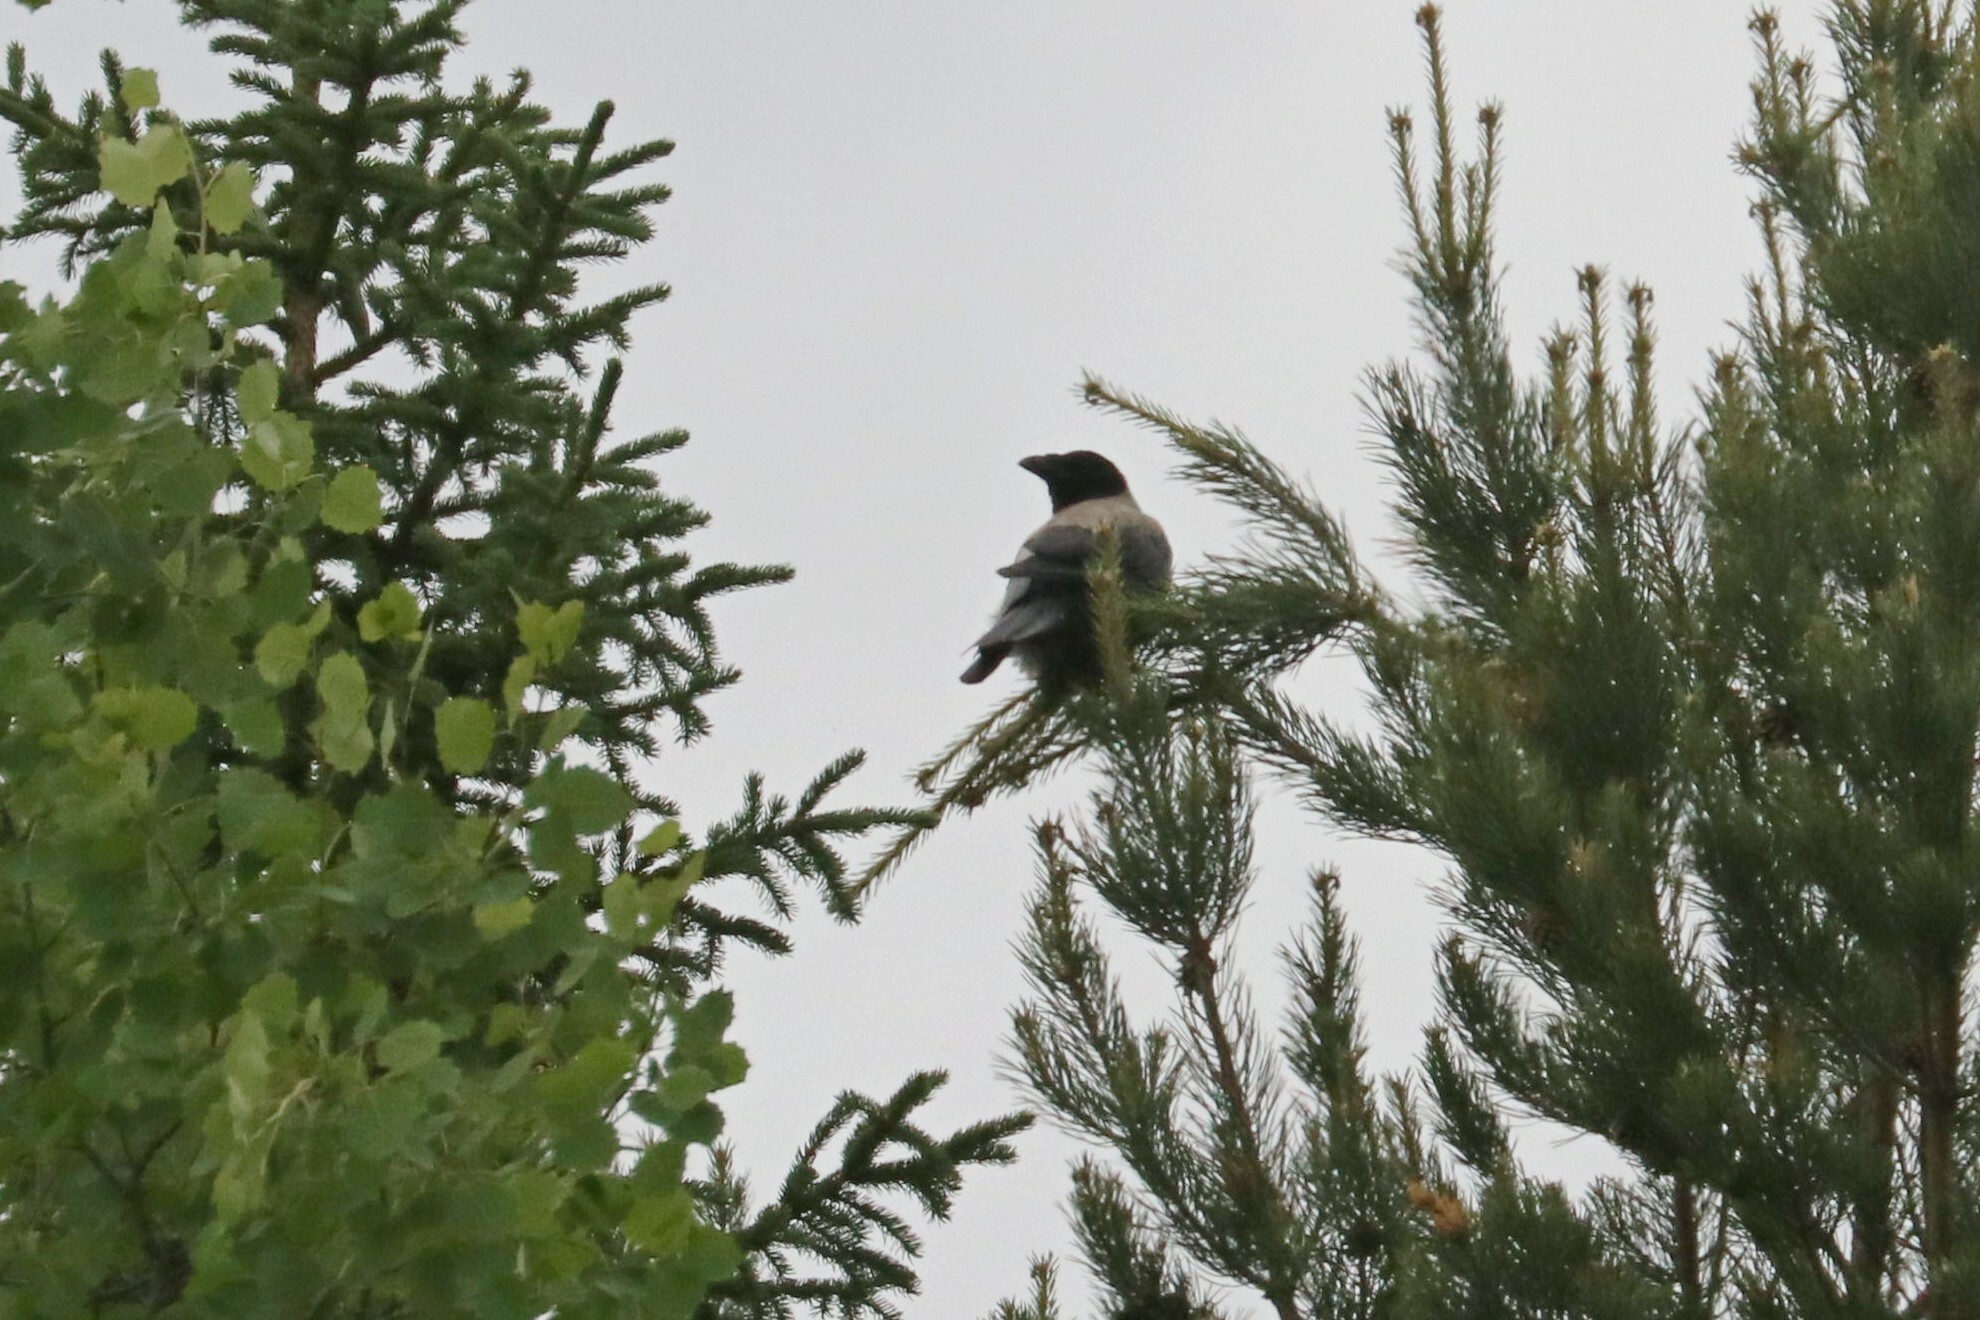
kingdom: Animalia
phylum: Chordata
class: Aves
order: Passeriformes
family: Corvidae
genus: Corvus
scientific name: Corvus cornix
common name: Hooded crow
